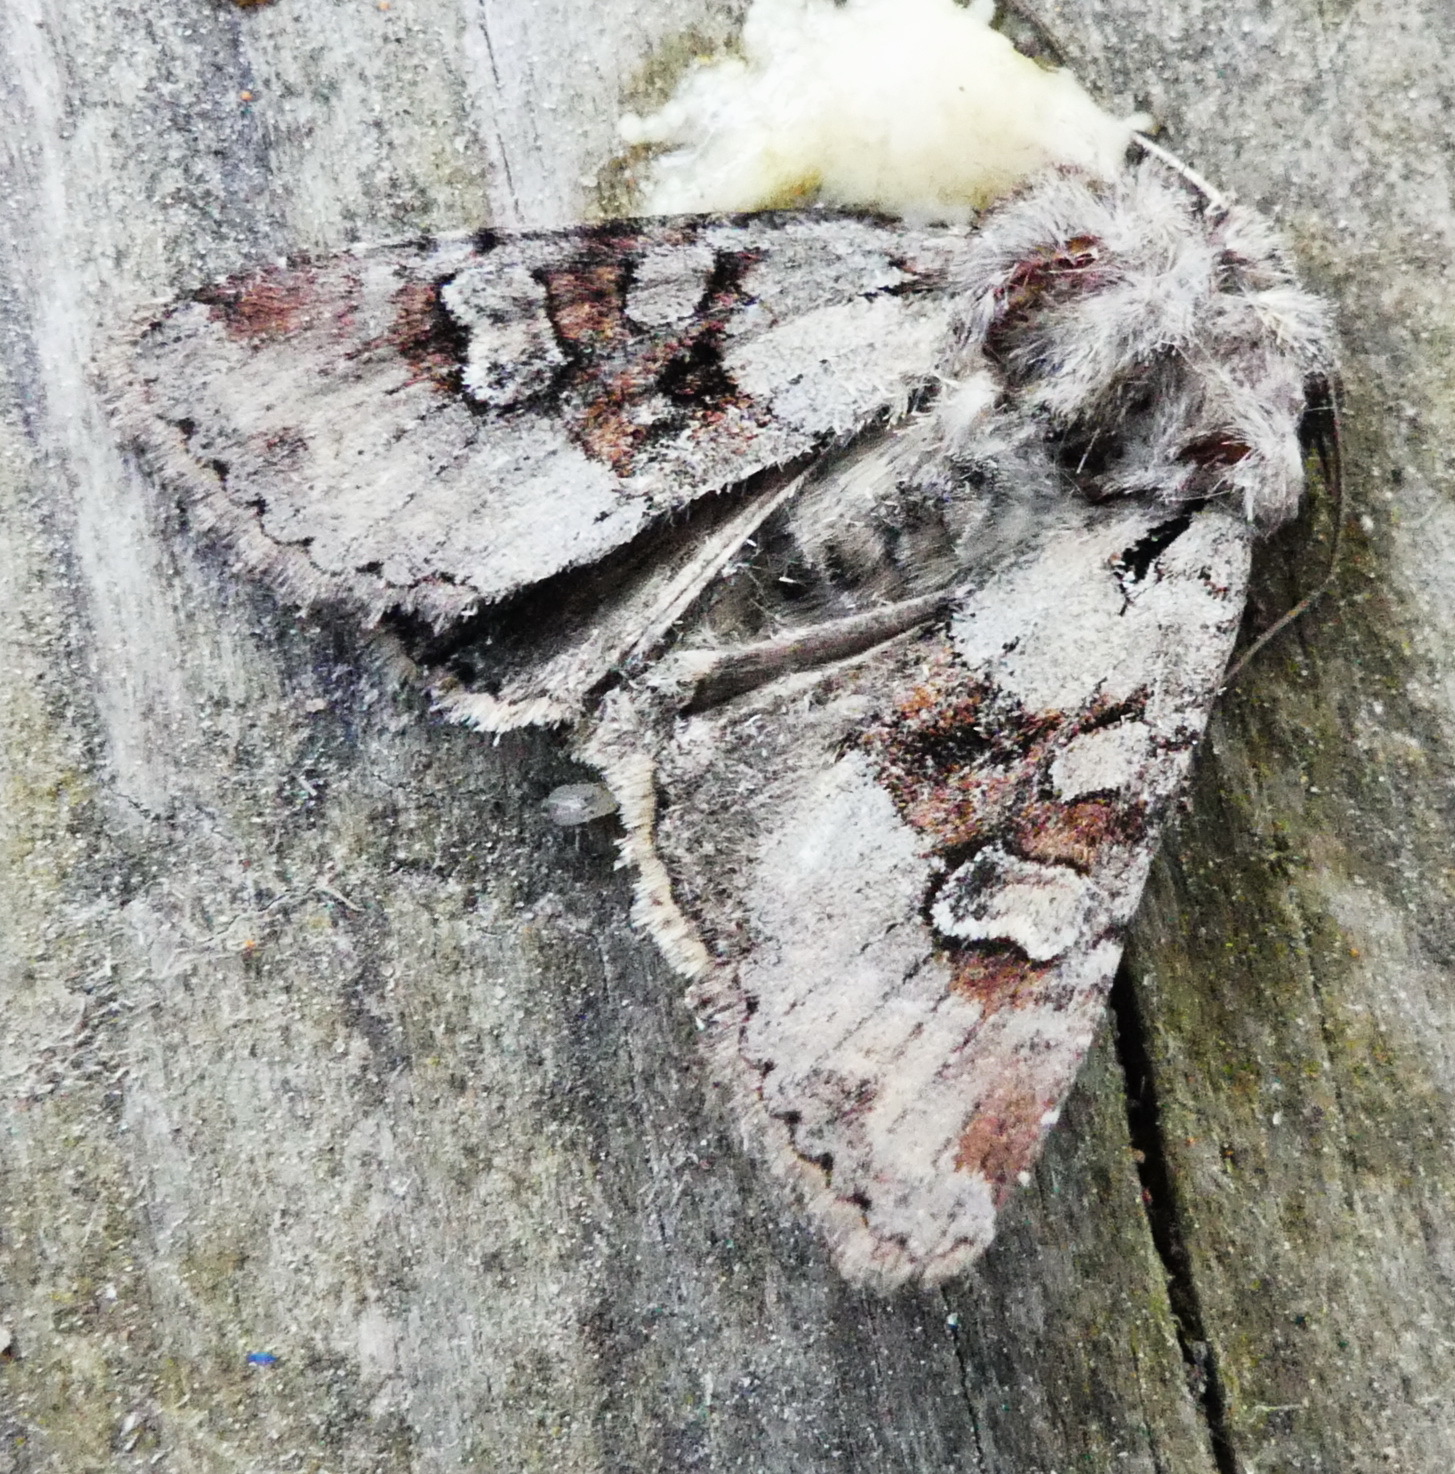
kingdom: Animalia
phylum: Arthropoda
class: Insecta
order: Lepidoptera
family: Noctuidae
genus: Apamea
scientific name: Apamea sordens
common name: Rustic shoulder-knot
